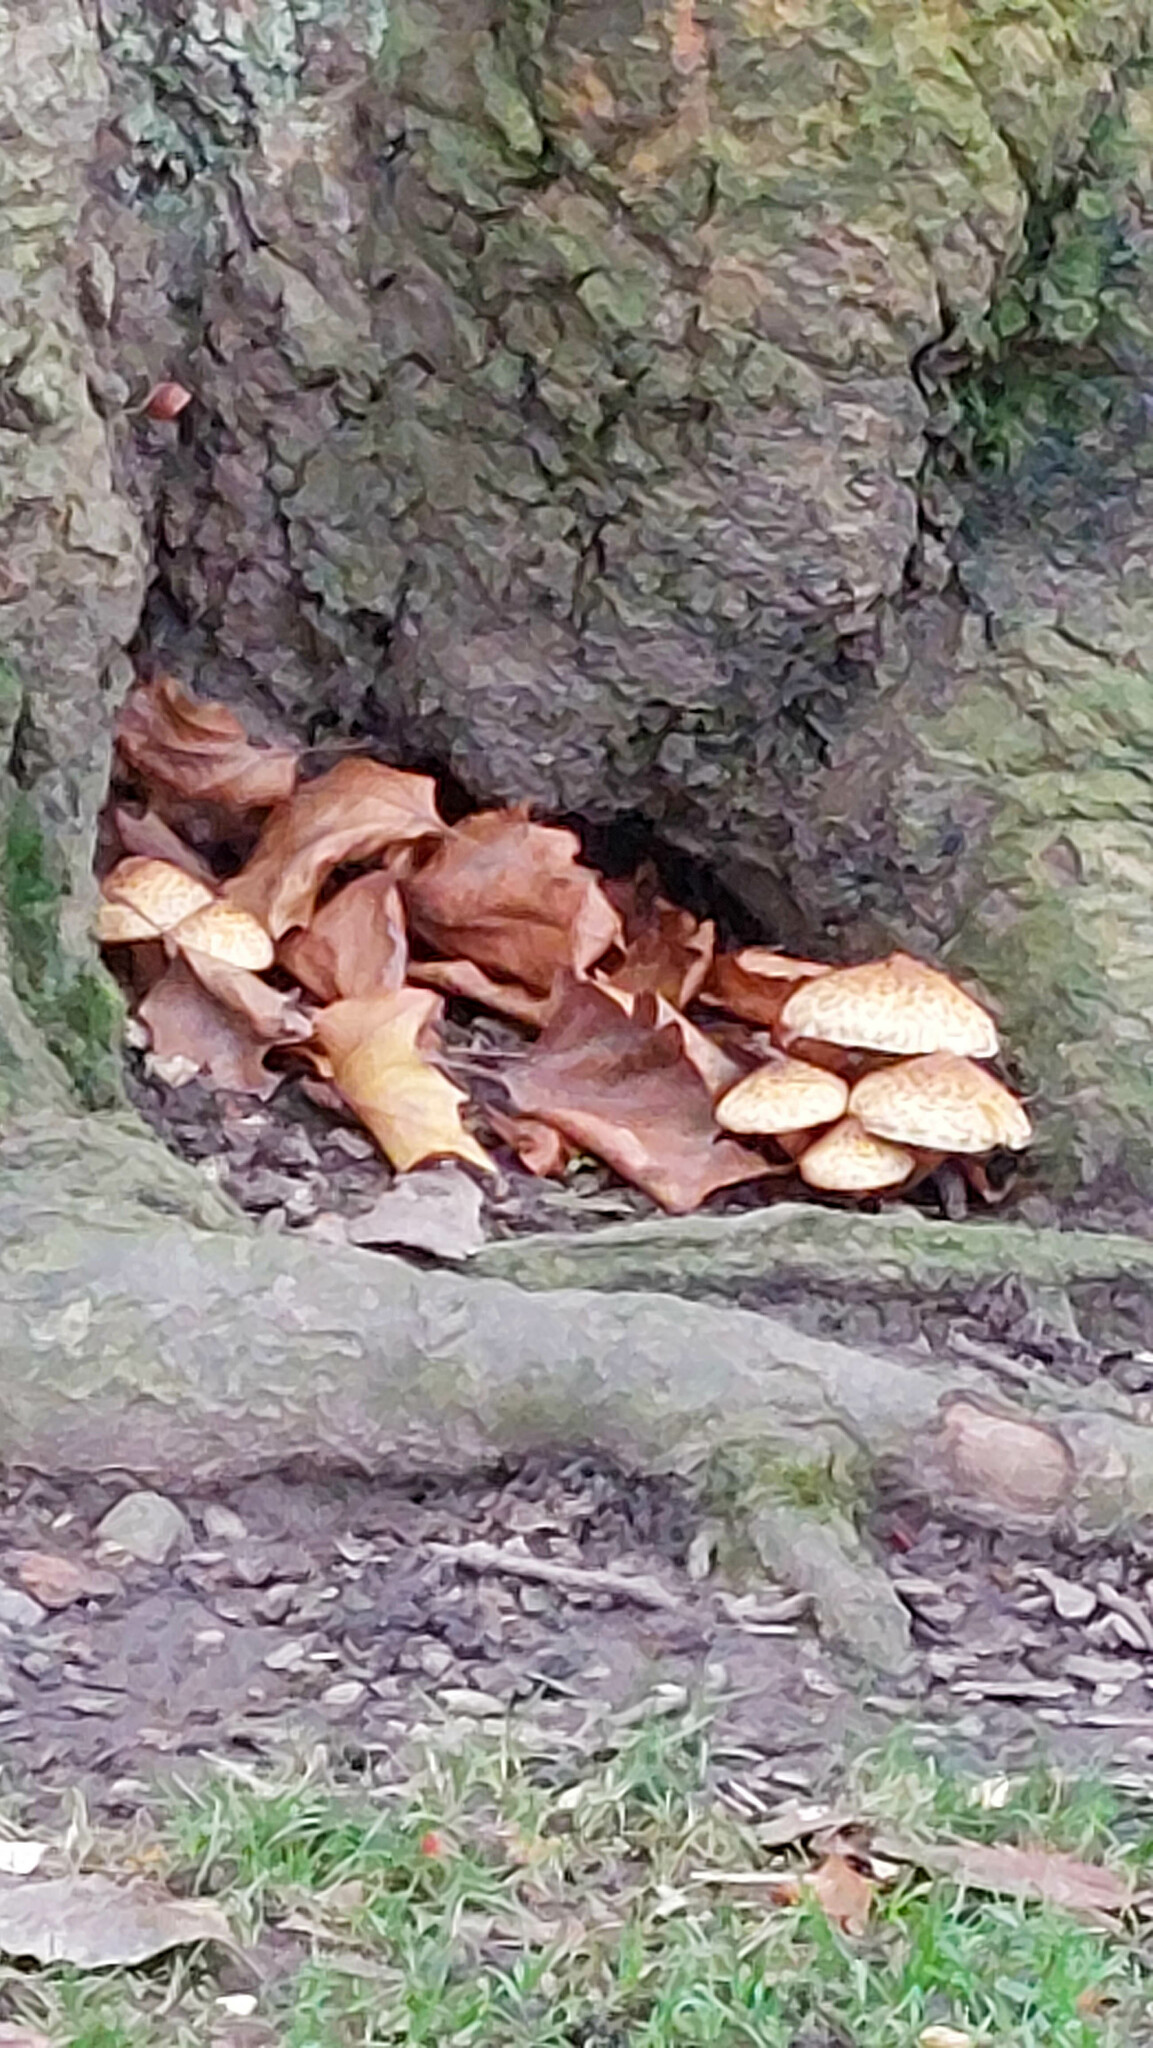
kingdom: Fungi
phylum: Basidiomycota
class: Agaricomycetes
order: Agaricales
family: Strophariaceae
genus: Pholiota
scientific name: Pholiota squarrosa
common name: Shaggy pholiota
